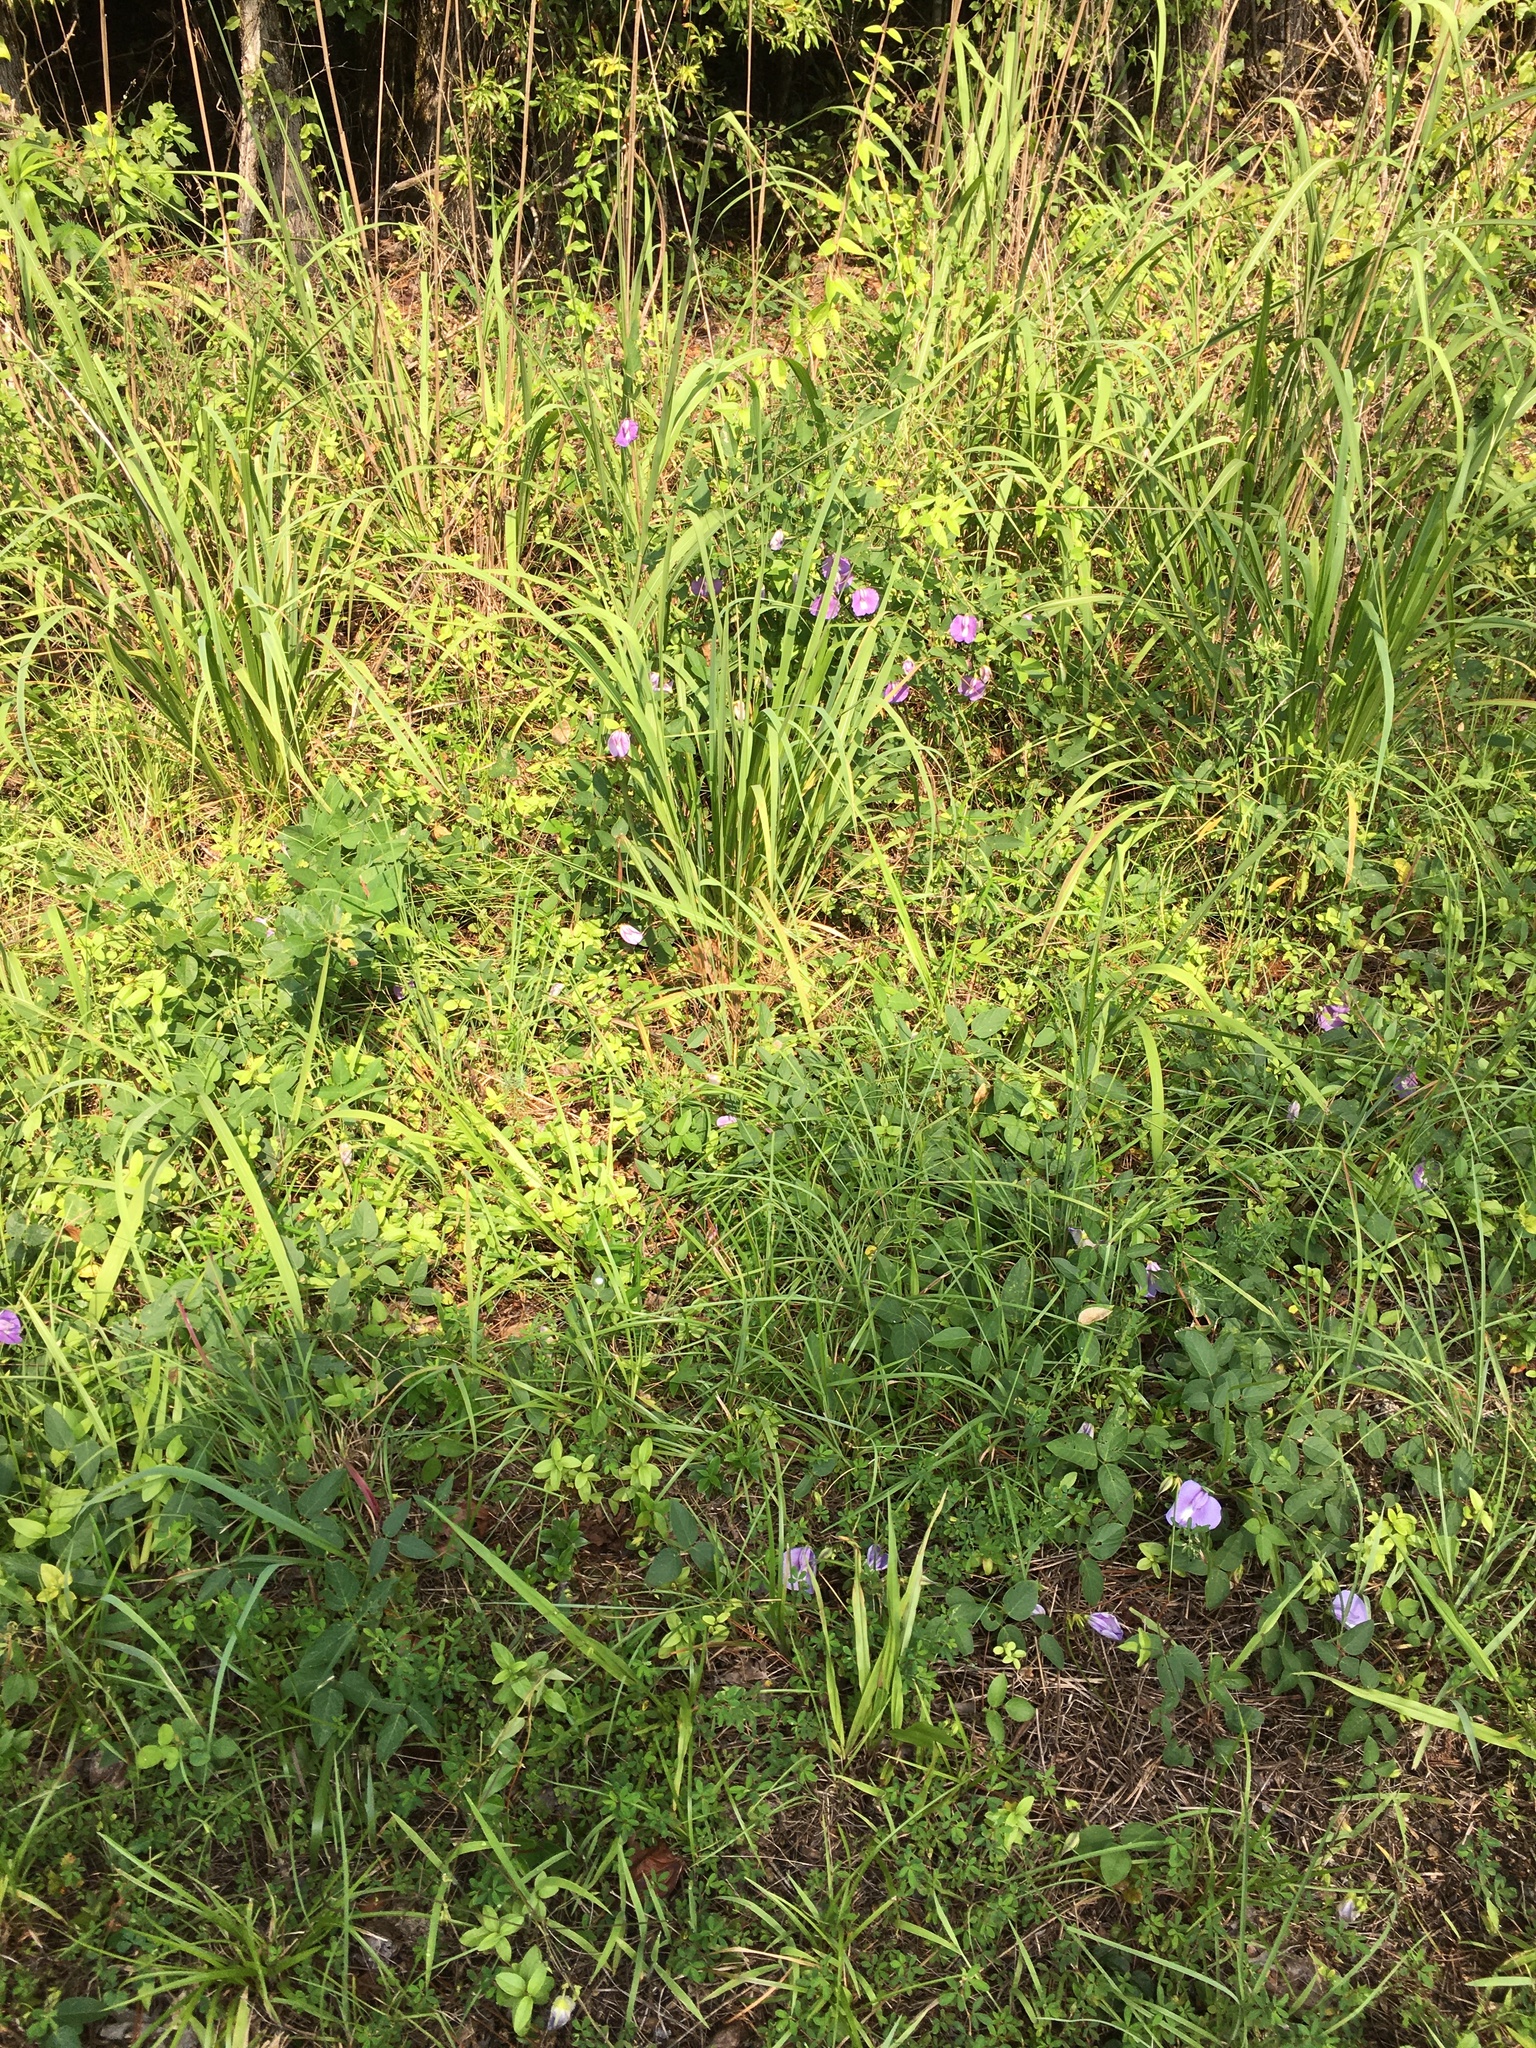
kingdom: Plantae
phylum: Tracheophyta
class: Magnoliopsida
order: Fabales
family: Fabaceae
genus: Centrosema
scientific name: Centrosema virginianum
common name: Butterfly-pea
